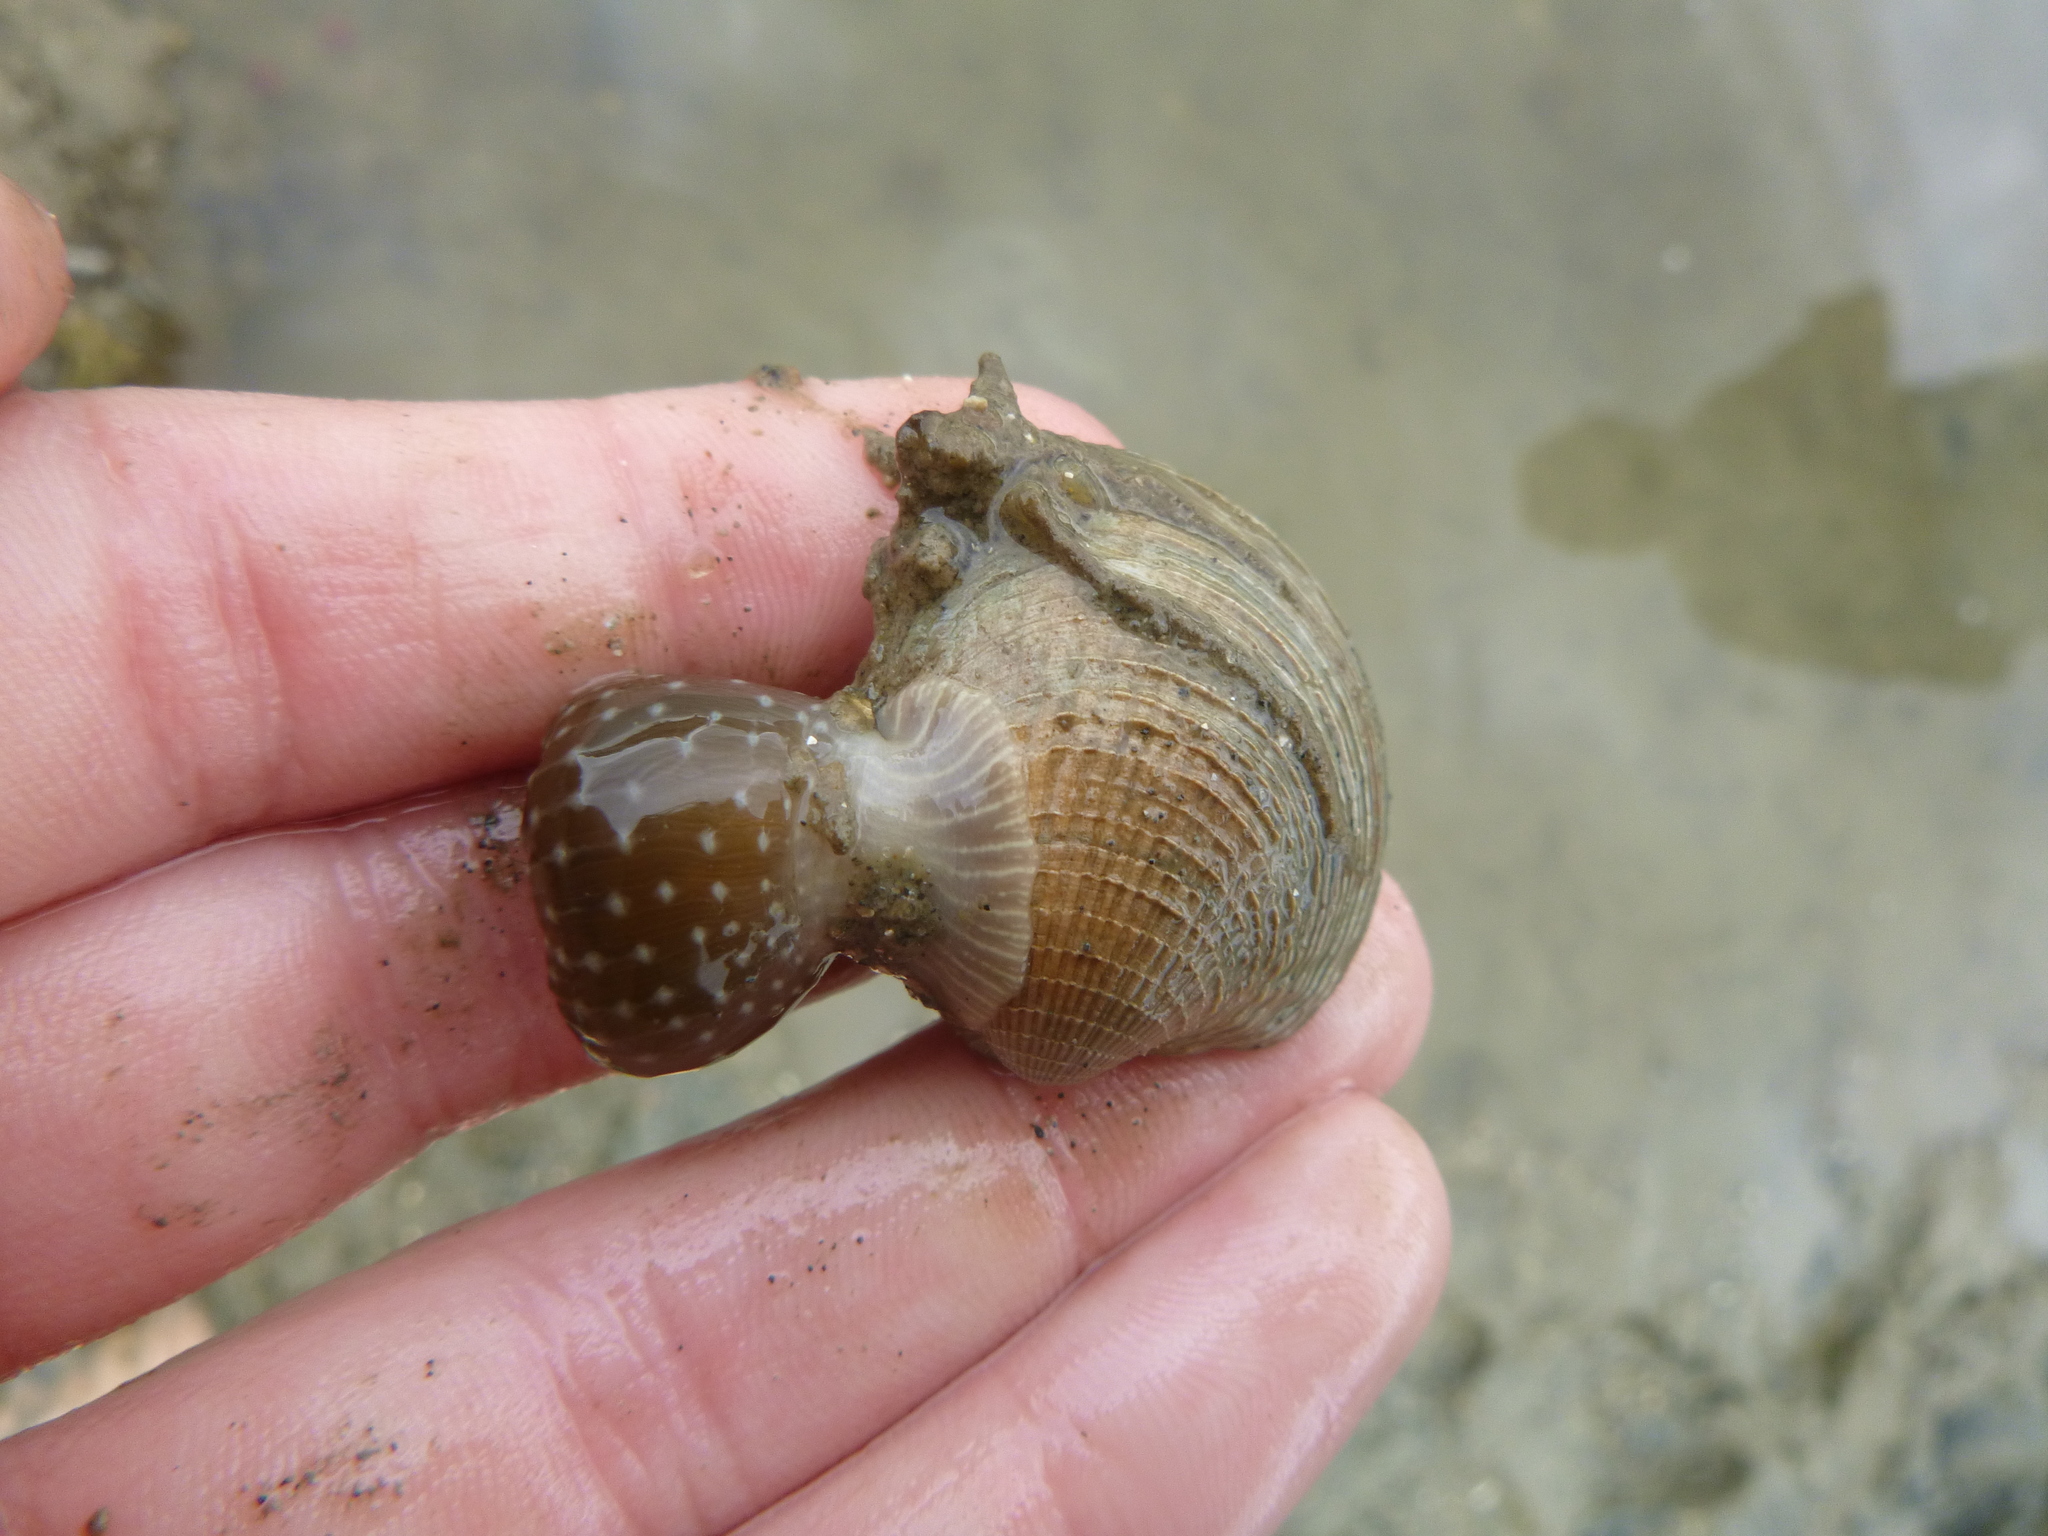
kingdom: Animalia
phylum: Cnidaria
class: Anthozoa
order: Actiniaria
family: Actiniidae
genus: Anthopleura
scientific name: Anthopleura hermaphroditica
